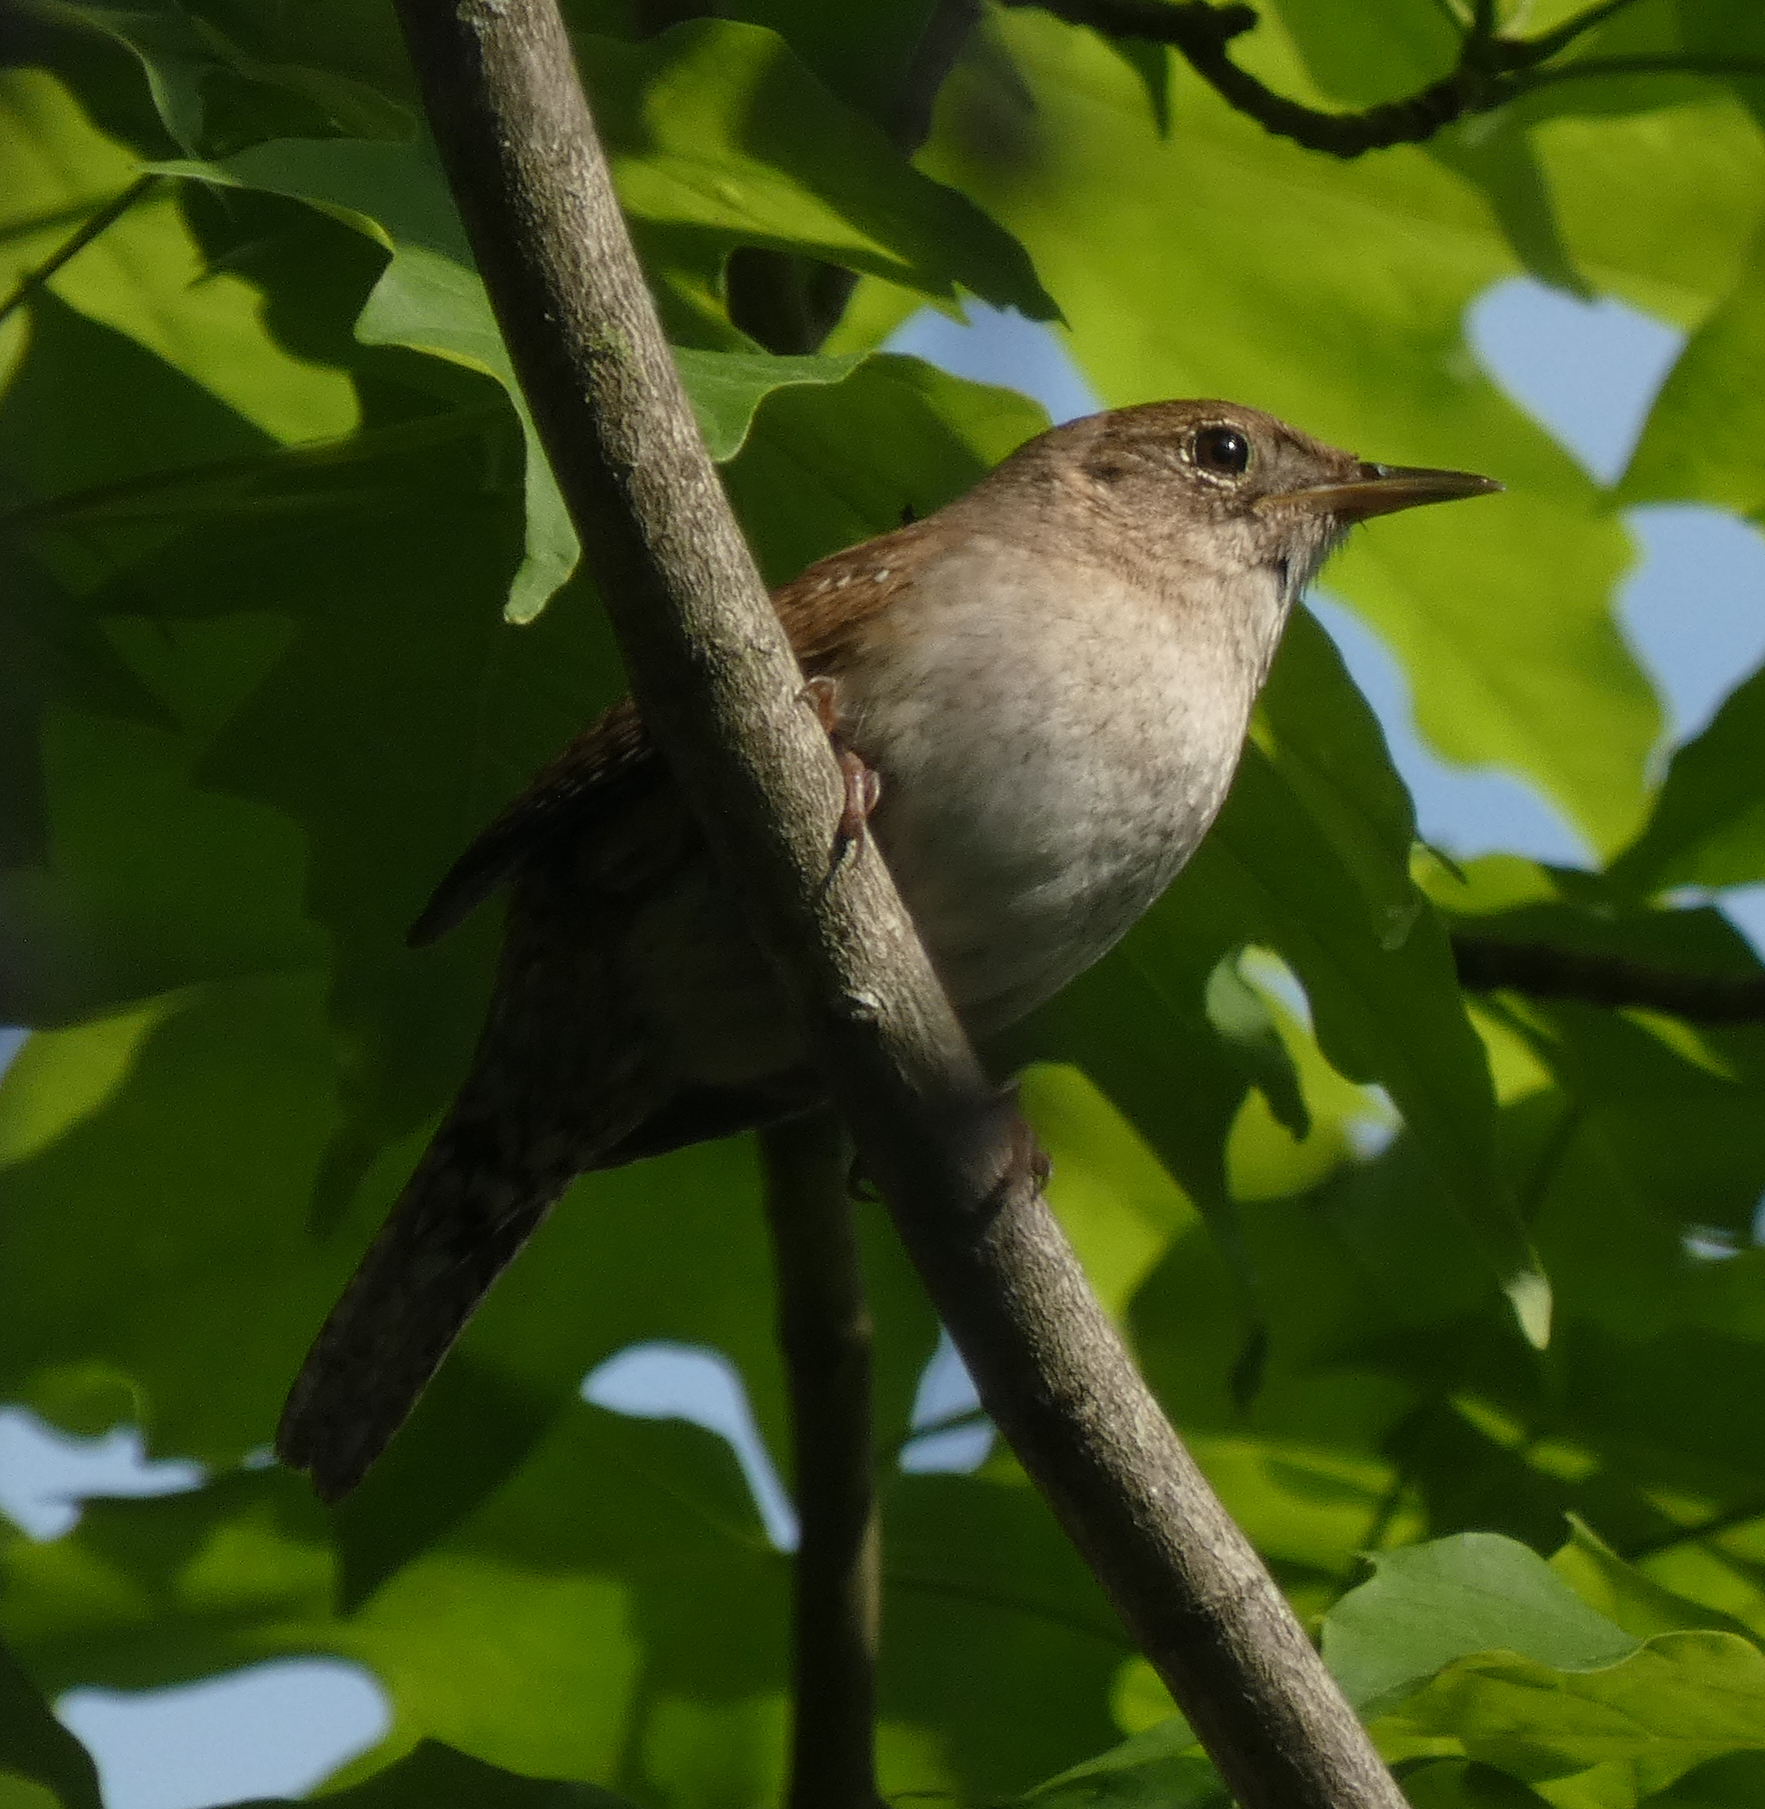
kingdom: Animalia
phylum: Chordata
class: Aves
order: Passeriformes
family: Troglodytidae
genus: Troglodytes
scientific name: Troglodytes aedon
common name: House wren
